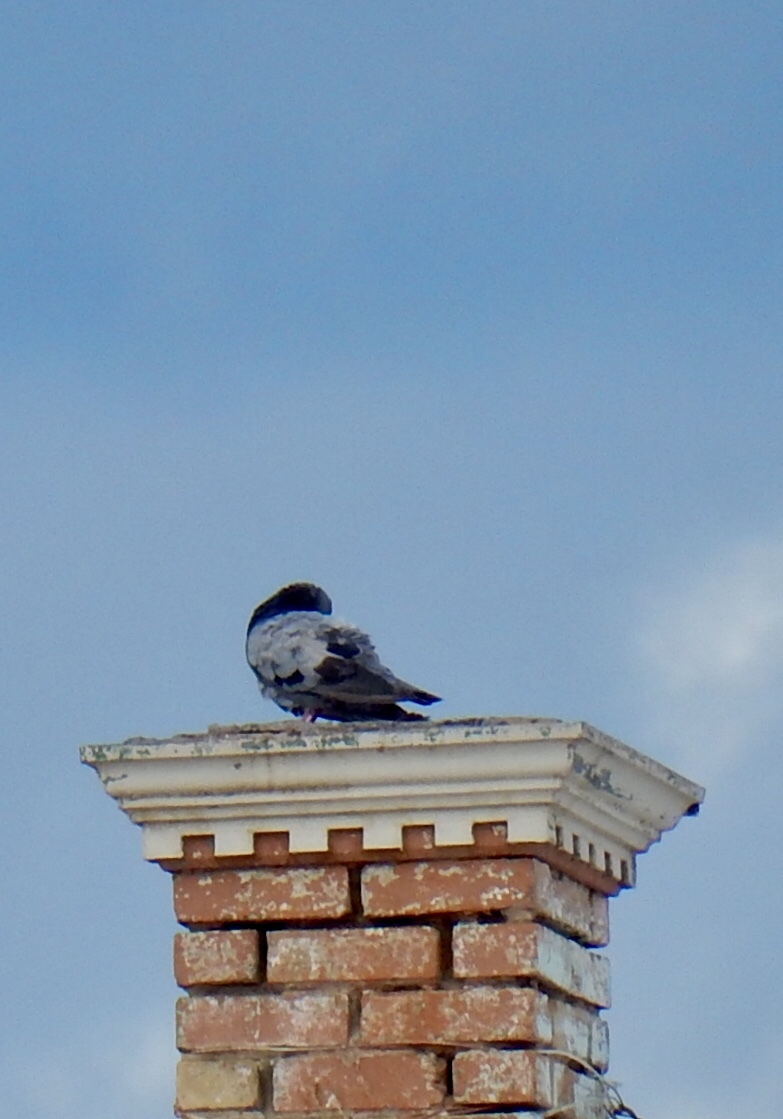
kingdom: Animalia
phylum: Chordata
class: Aves
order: Columbiformes
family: Columbidae
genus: Columba
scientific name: Columba livia
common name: Rock pigeon
